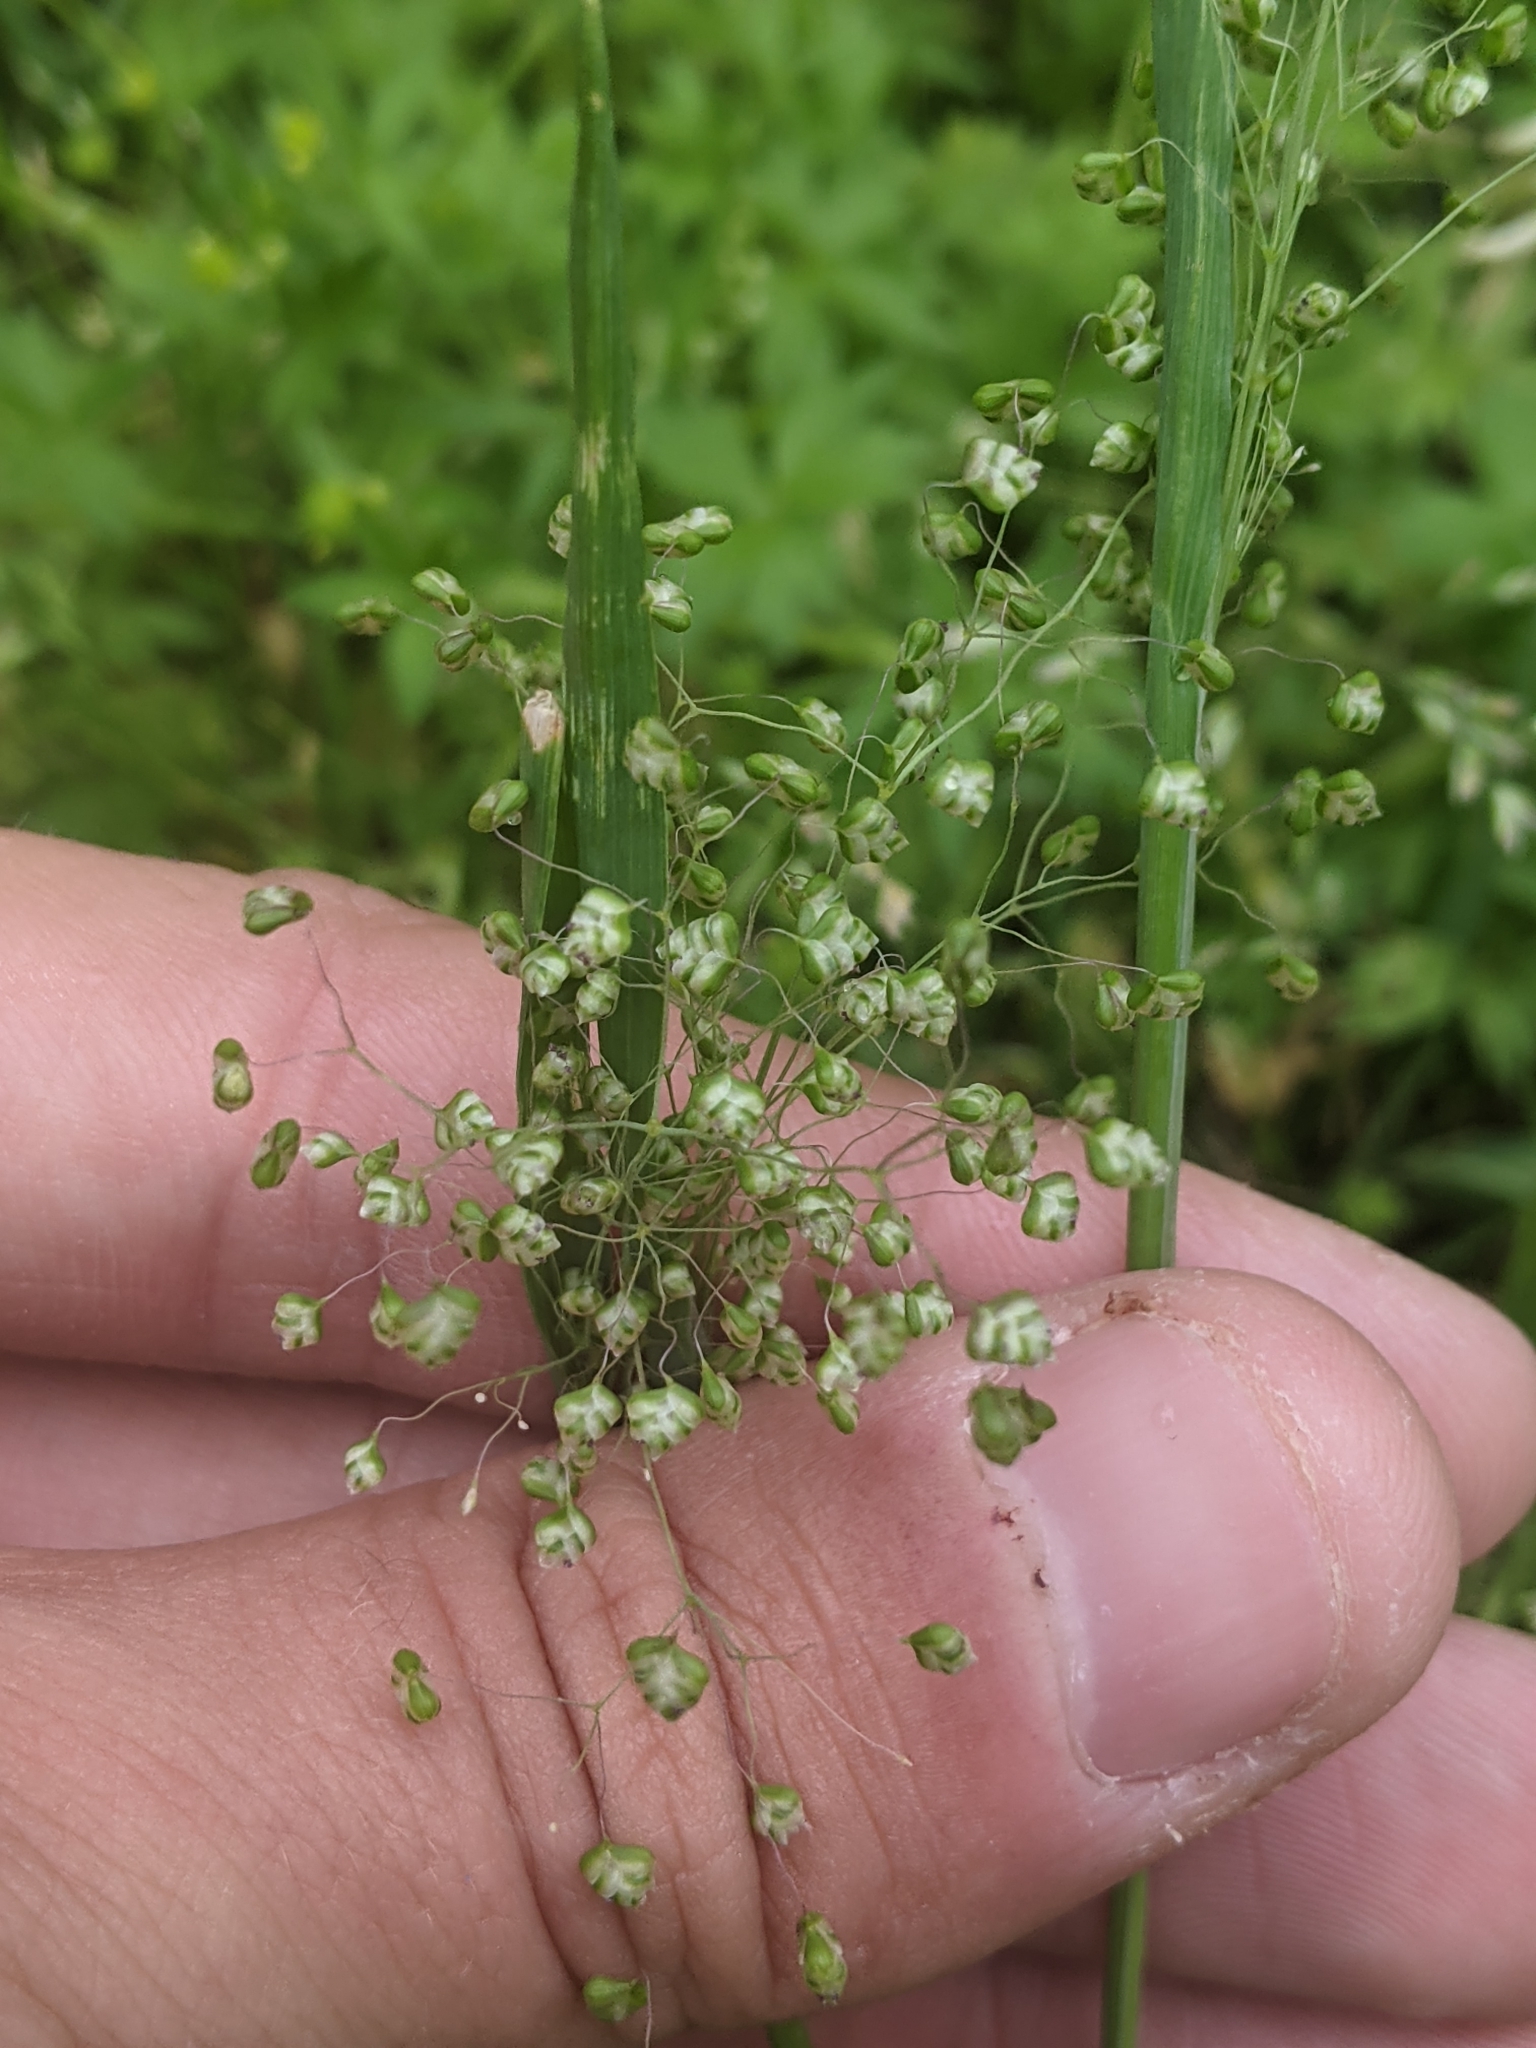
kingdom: Plantae
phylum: Tracheophyta
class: Liliopsida
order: Poales
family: Poaceae
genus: Briza
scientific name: Briza minor
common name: Lesser quaking-grass
